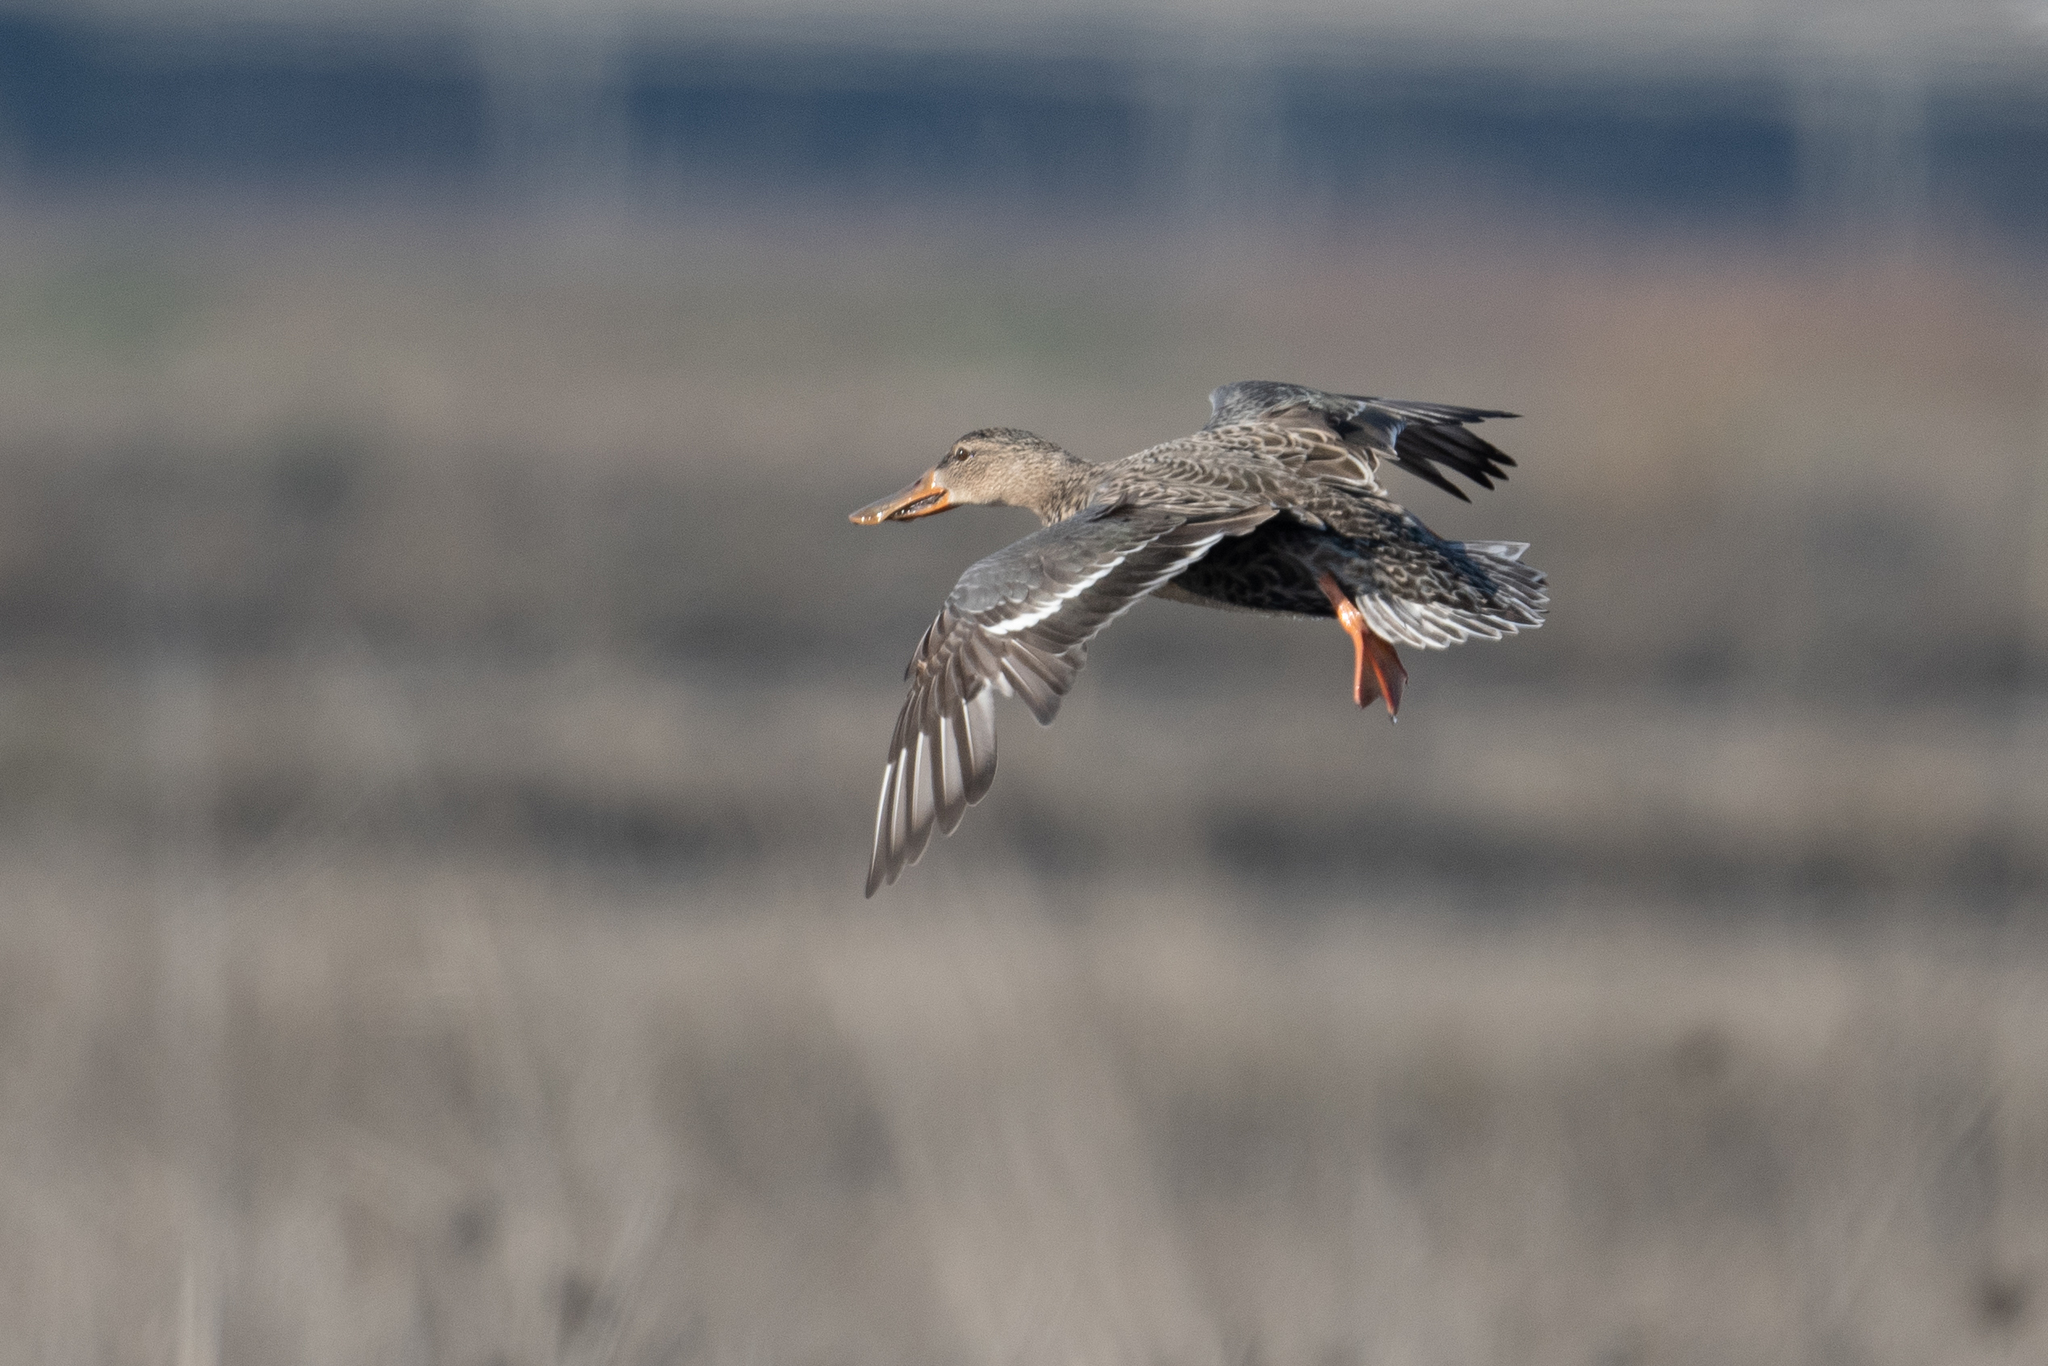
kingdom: Animalia
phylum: Chordata
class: Aves
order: Anseriformes
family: Anatidae
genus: Spatula
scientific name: Spatula clypeata
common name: Northern shoveler
